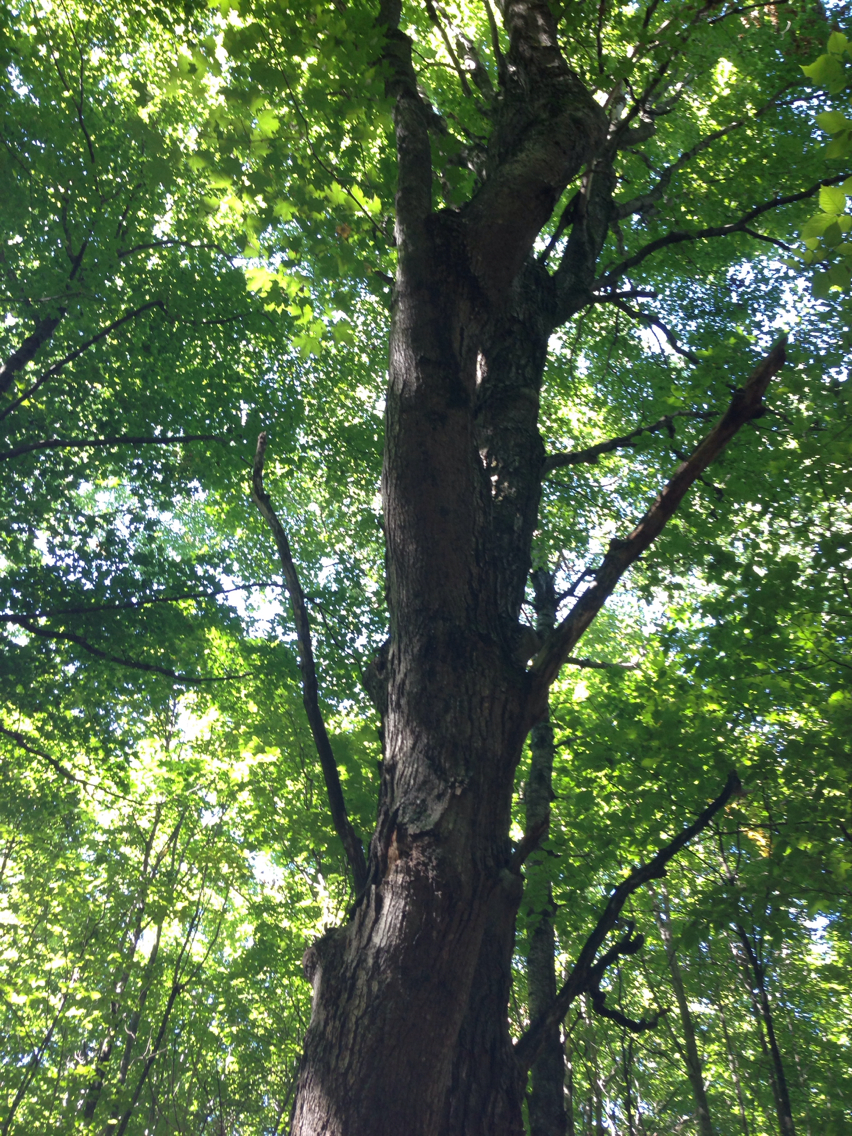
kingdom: Plantae
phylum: Tracheophyta
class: Magnoliopsida
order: Sapindales
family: Sapindaceae
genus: Acer
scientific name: Acer saccharum
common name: Sugar maple
